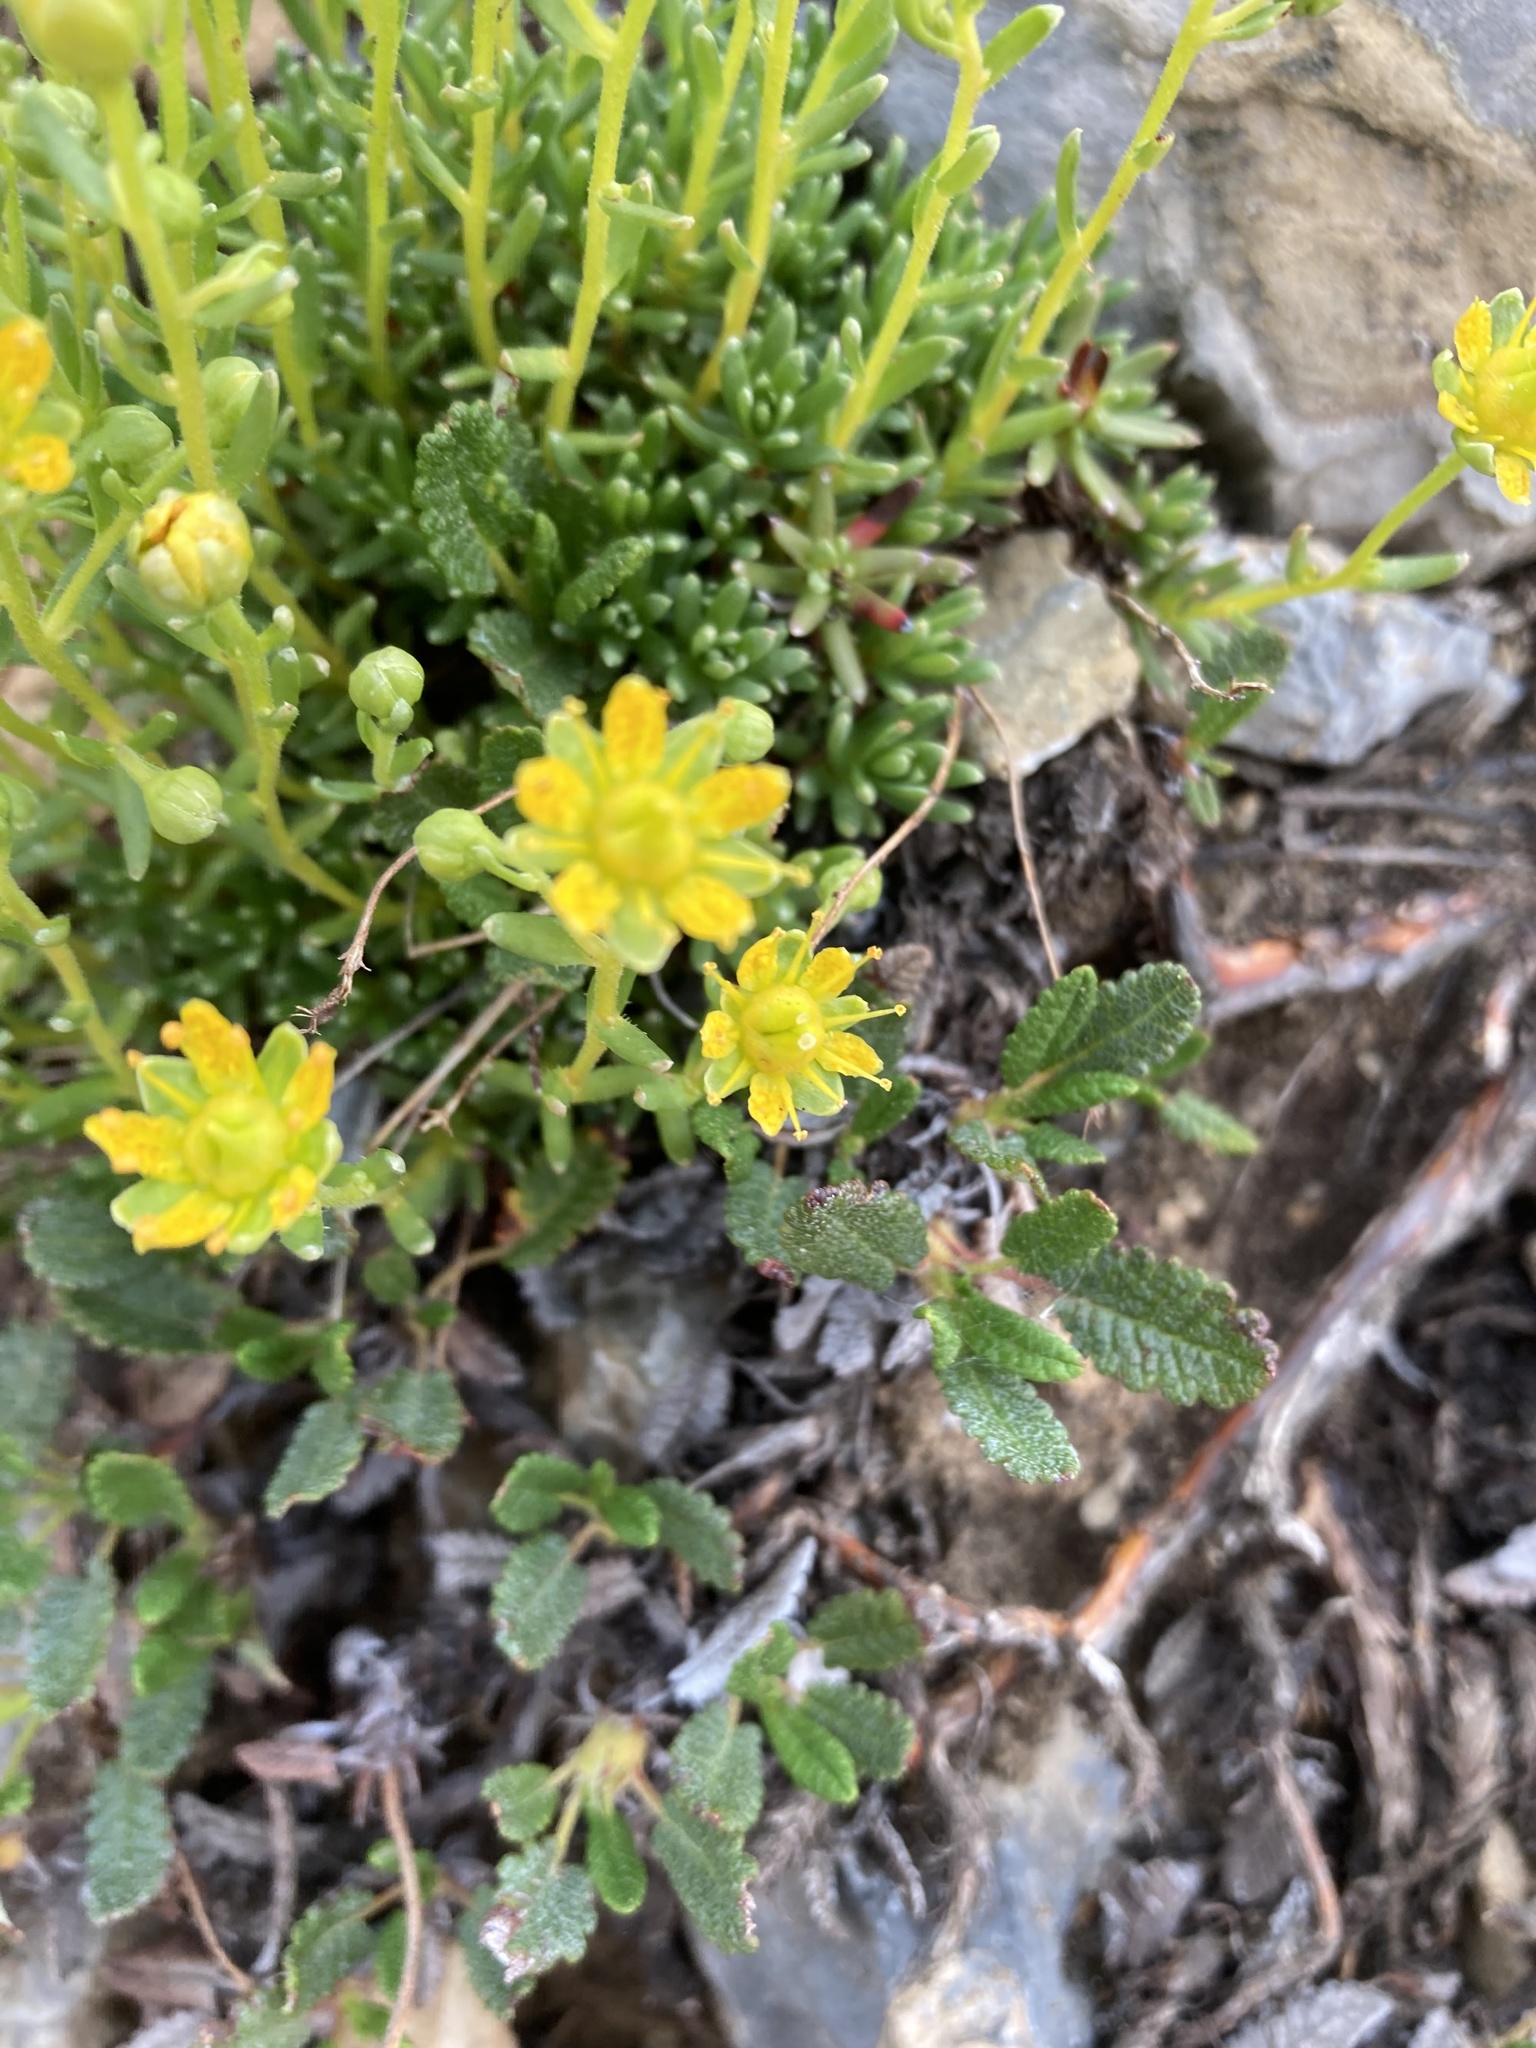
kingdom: Plantae
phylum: Tracheophyta
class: Magnoliopsida
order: Saxifragales
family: Saxifragaceae
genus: Saxifraga
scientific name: Saxifraga aizoides
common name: Yellow mountain saxifrage
